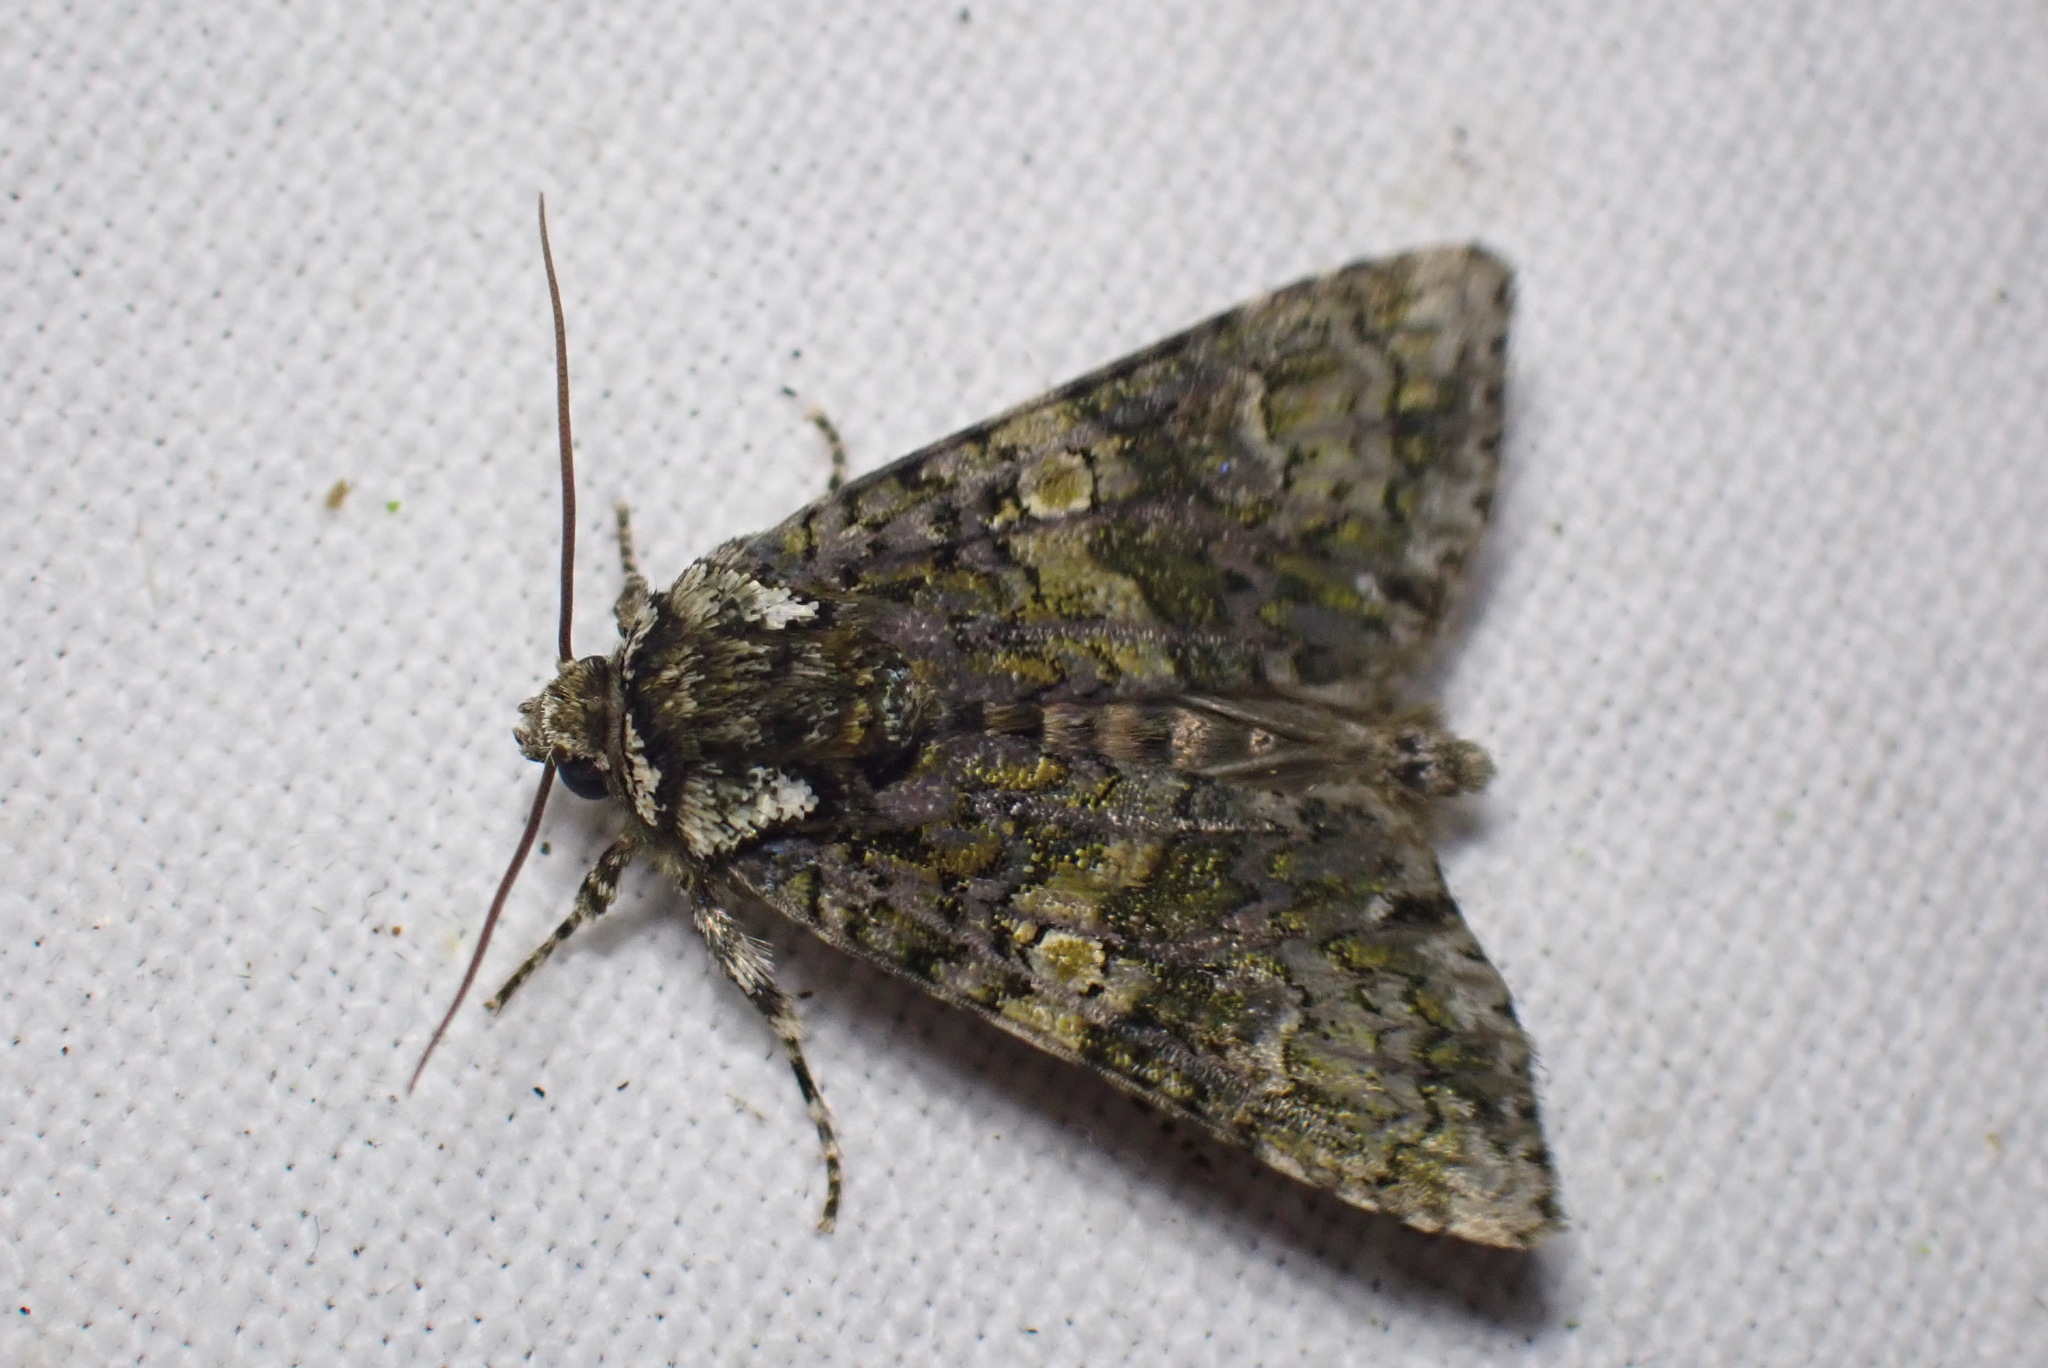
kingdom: Animalia
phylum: Arthropoda
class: Insecta
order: Lepidoptera
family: Noctuidae
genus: Craniophora
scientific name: Craniophora ligustri
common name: Coronet
